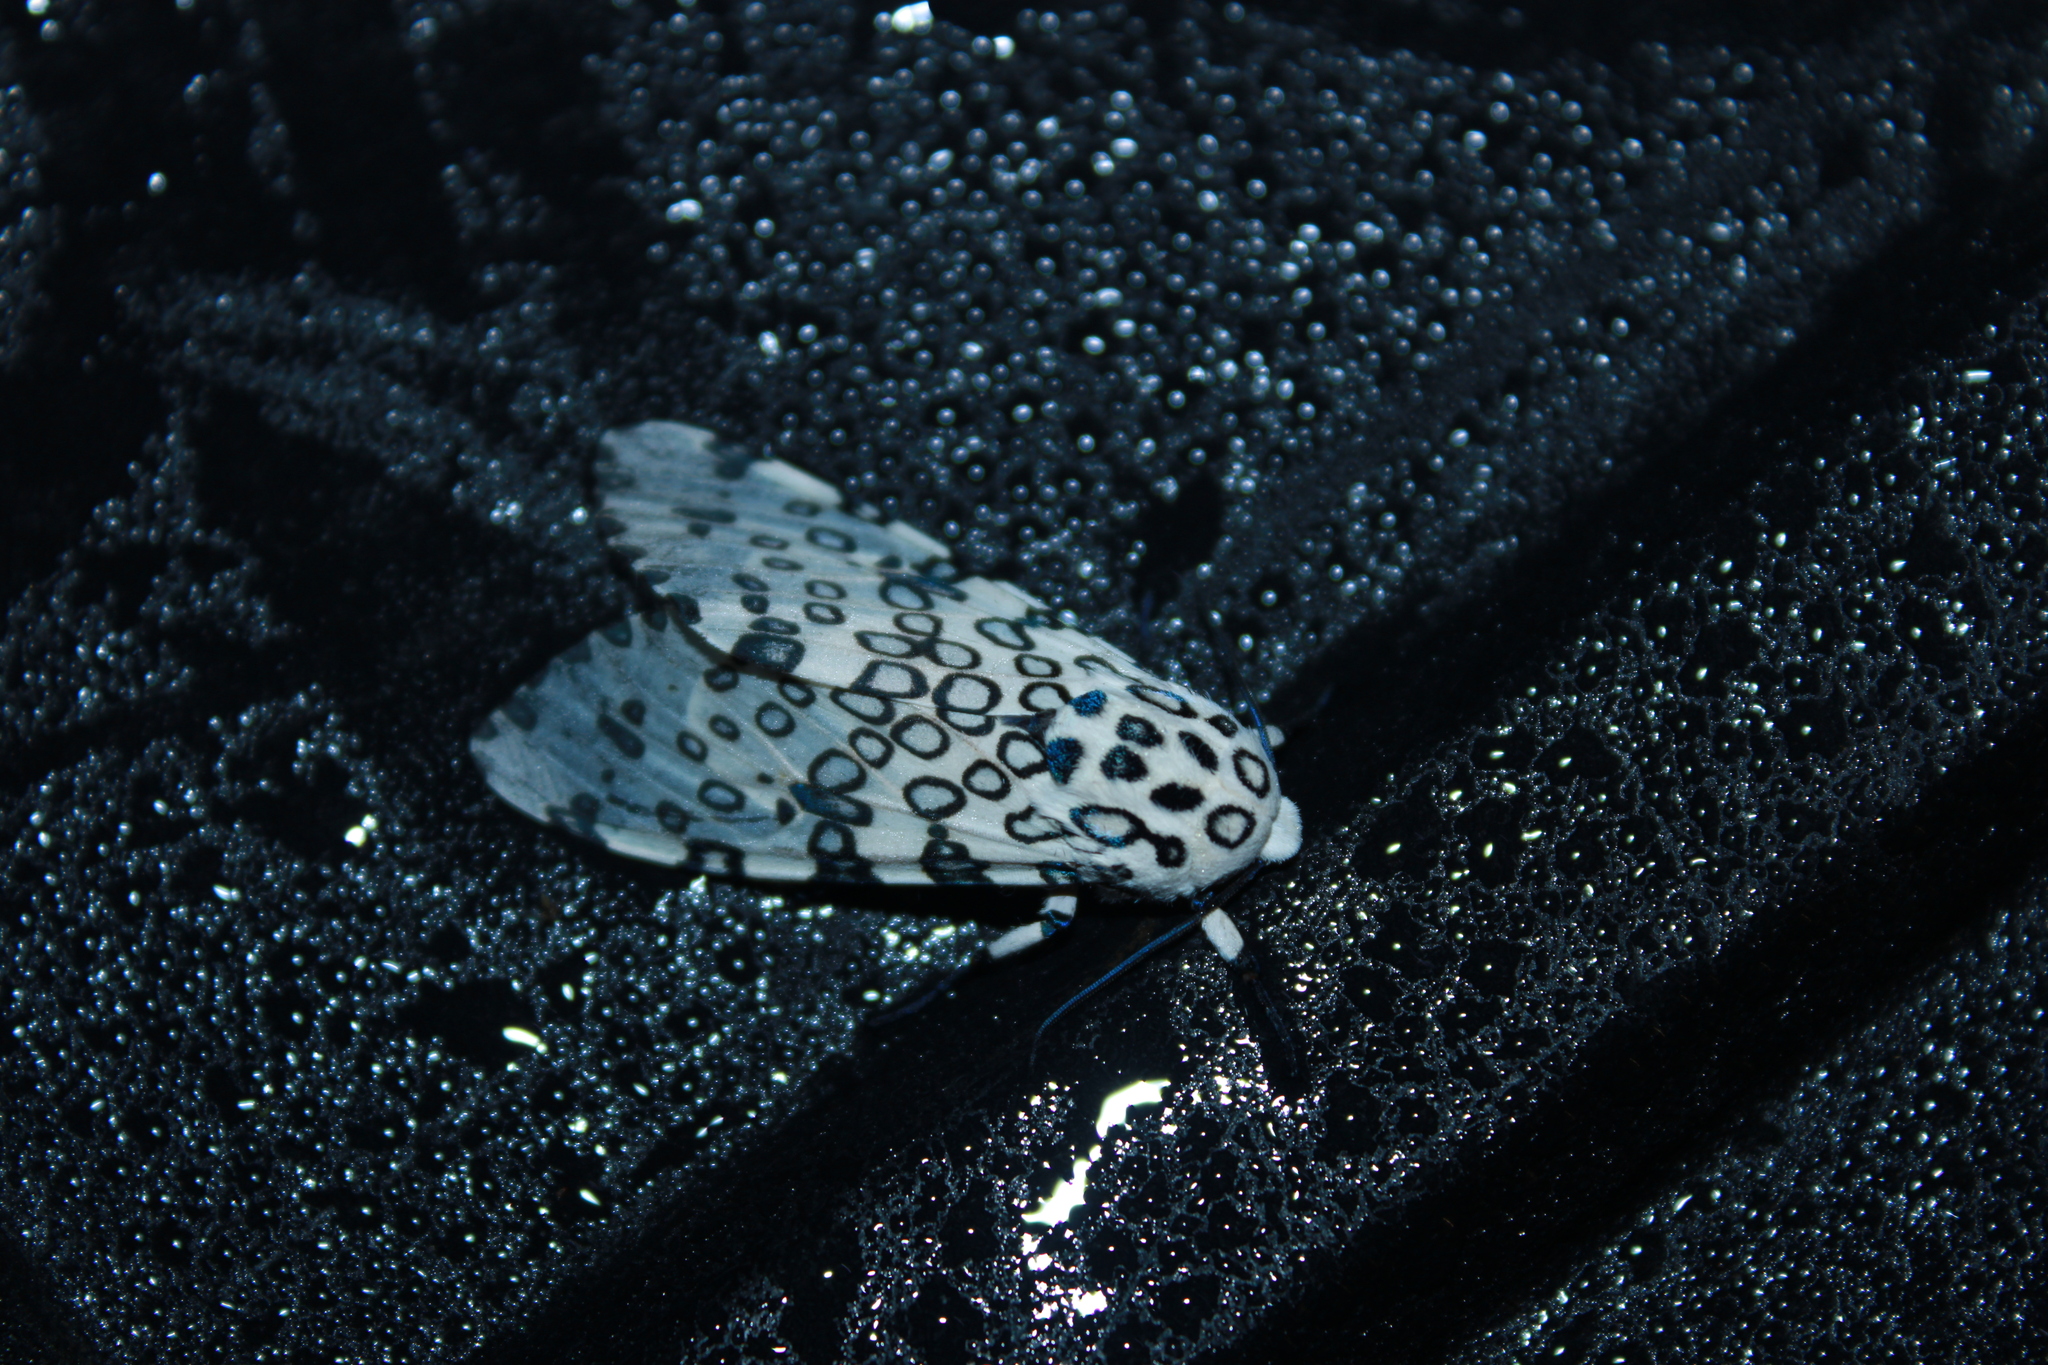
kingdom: Animalia
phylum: Arthropoda
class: Insecta
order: Lepidoptera
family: Erebidae
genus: Hypercompe
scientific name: Hypercompe scribonia
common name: Giant leopard moth
